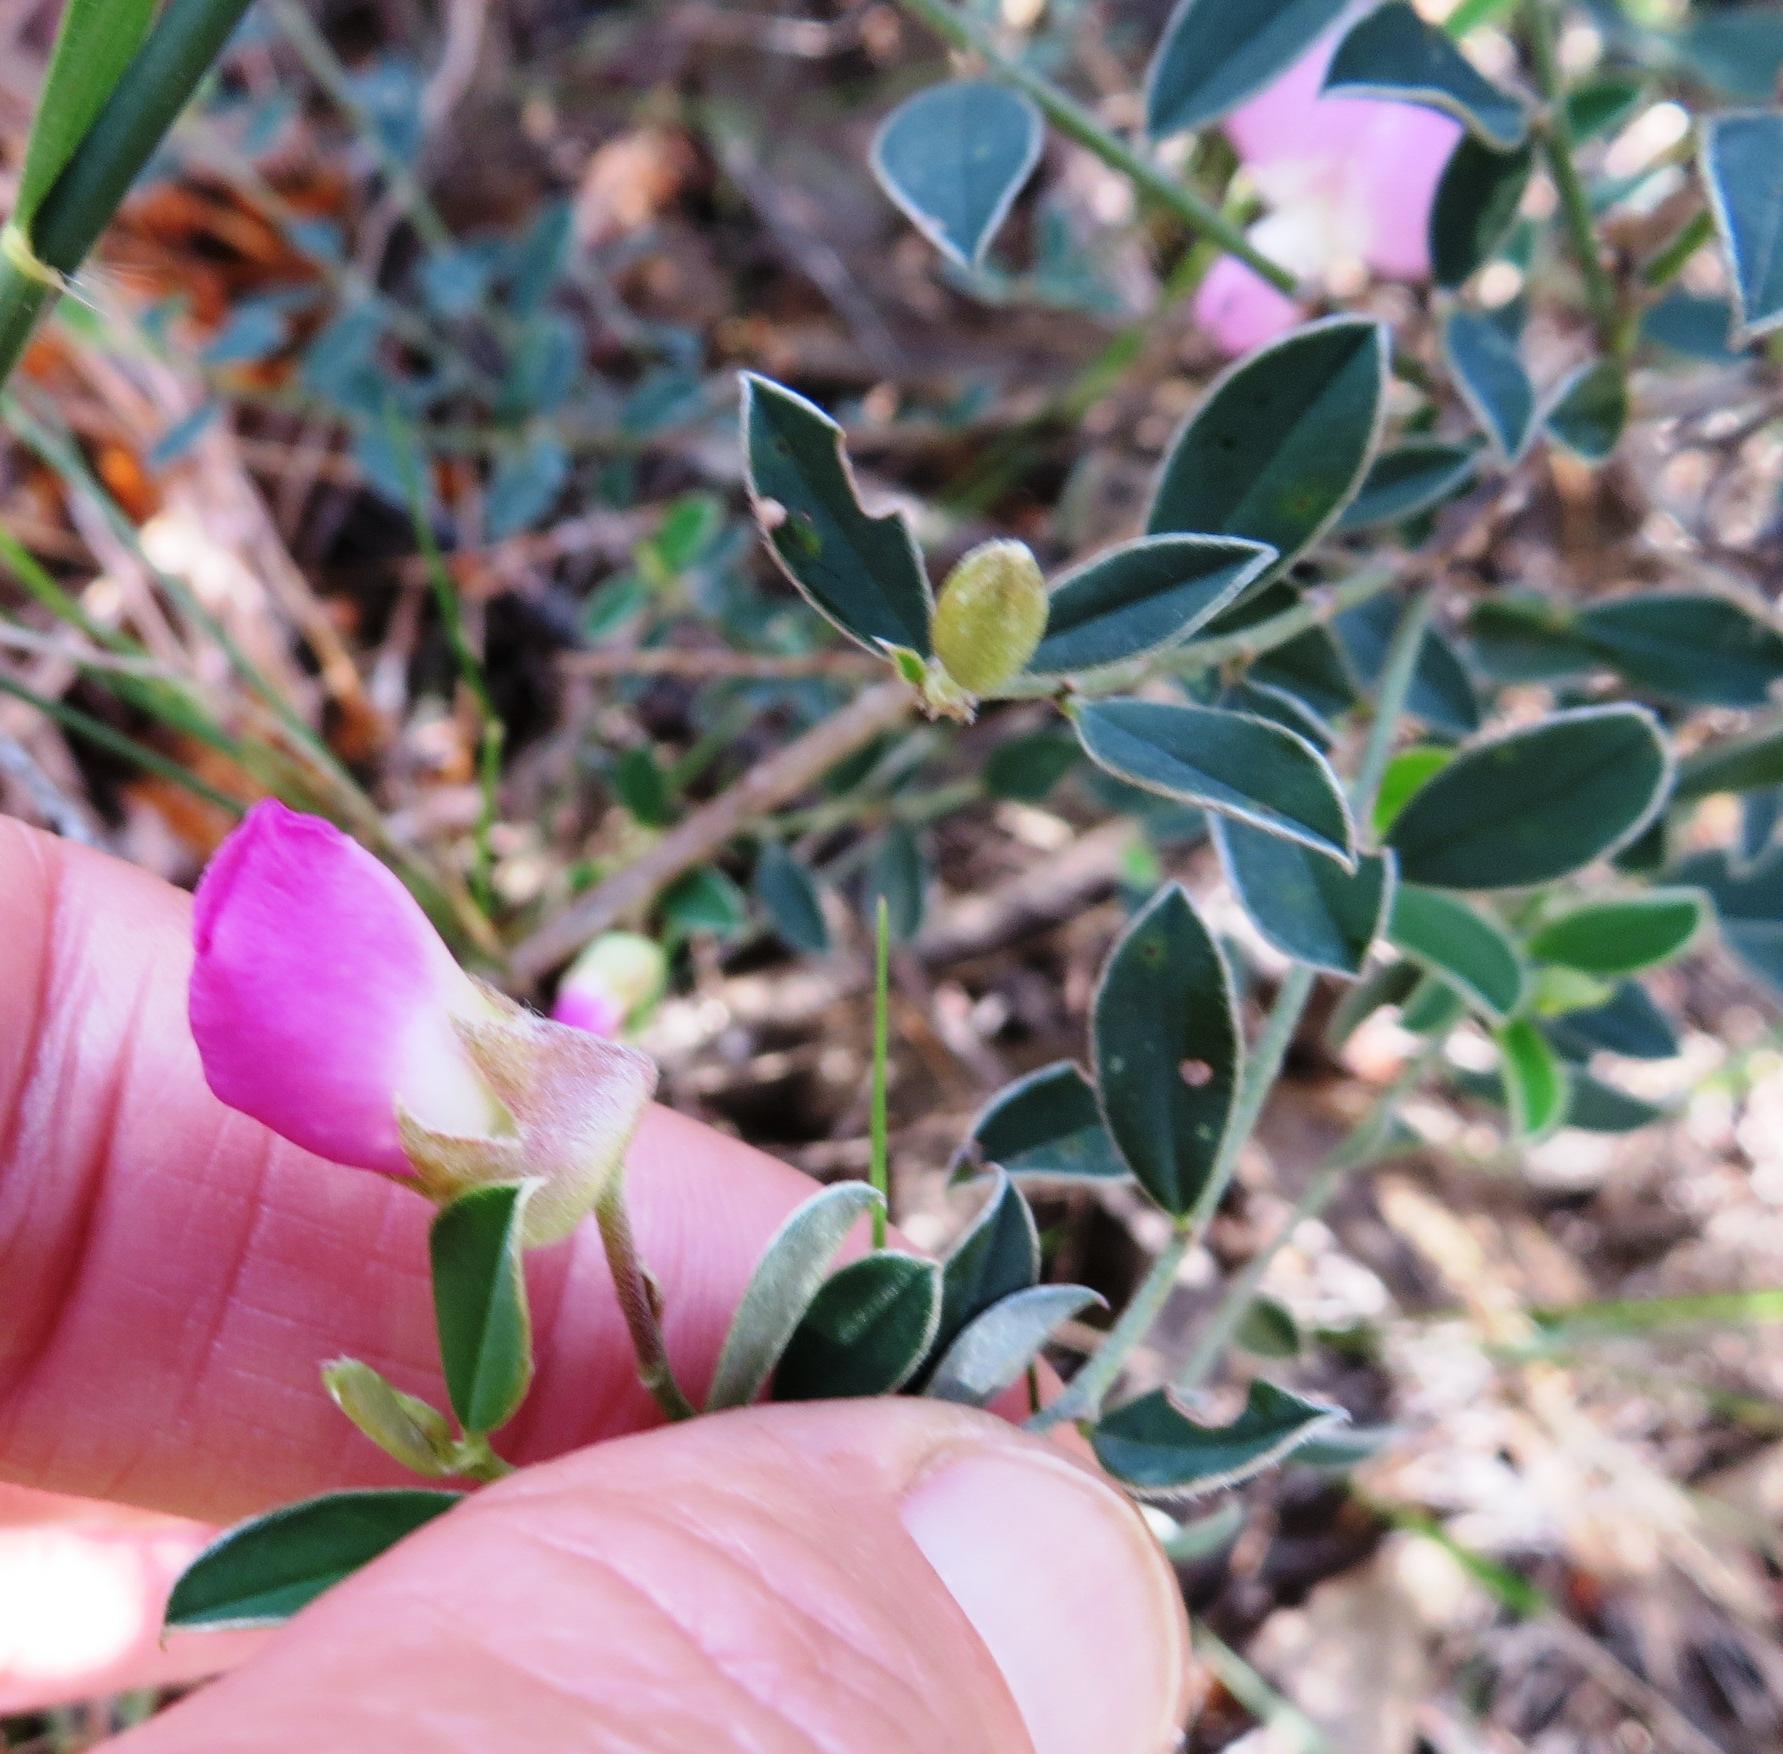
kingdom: Plantae
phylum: Tracheophyta
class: Magnoliopsida
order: Fabales
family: Fabaceae
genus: Podalyria
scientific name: Podalyria pearsonii
